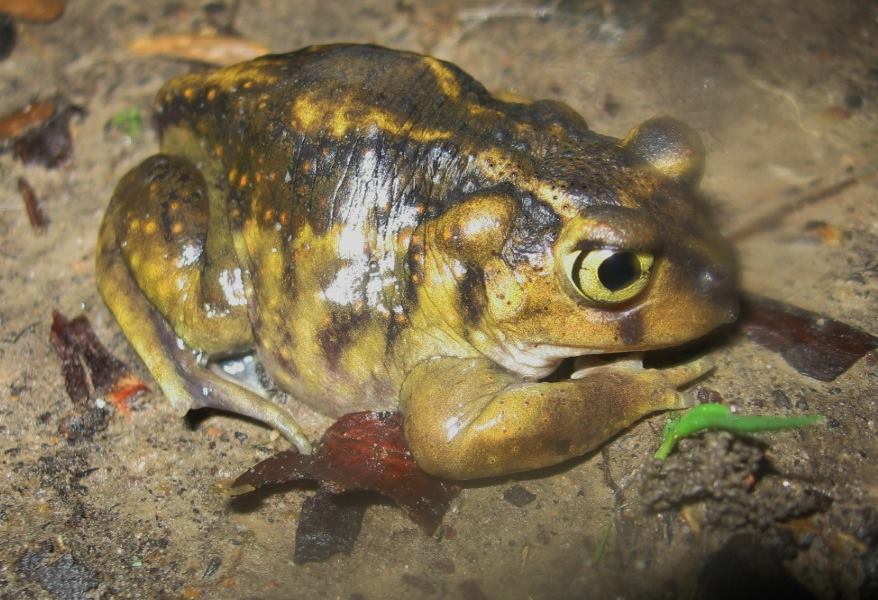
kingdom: Animalia
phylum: Chordata
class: Amphibia
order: Anura
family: Scaphiopodidae
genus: Scaphiopus
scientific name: Scaphiopus holbrookii
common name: Eastern spadefoot toad
